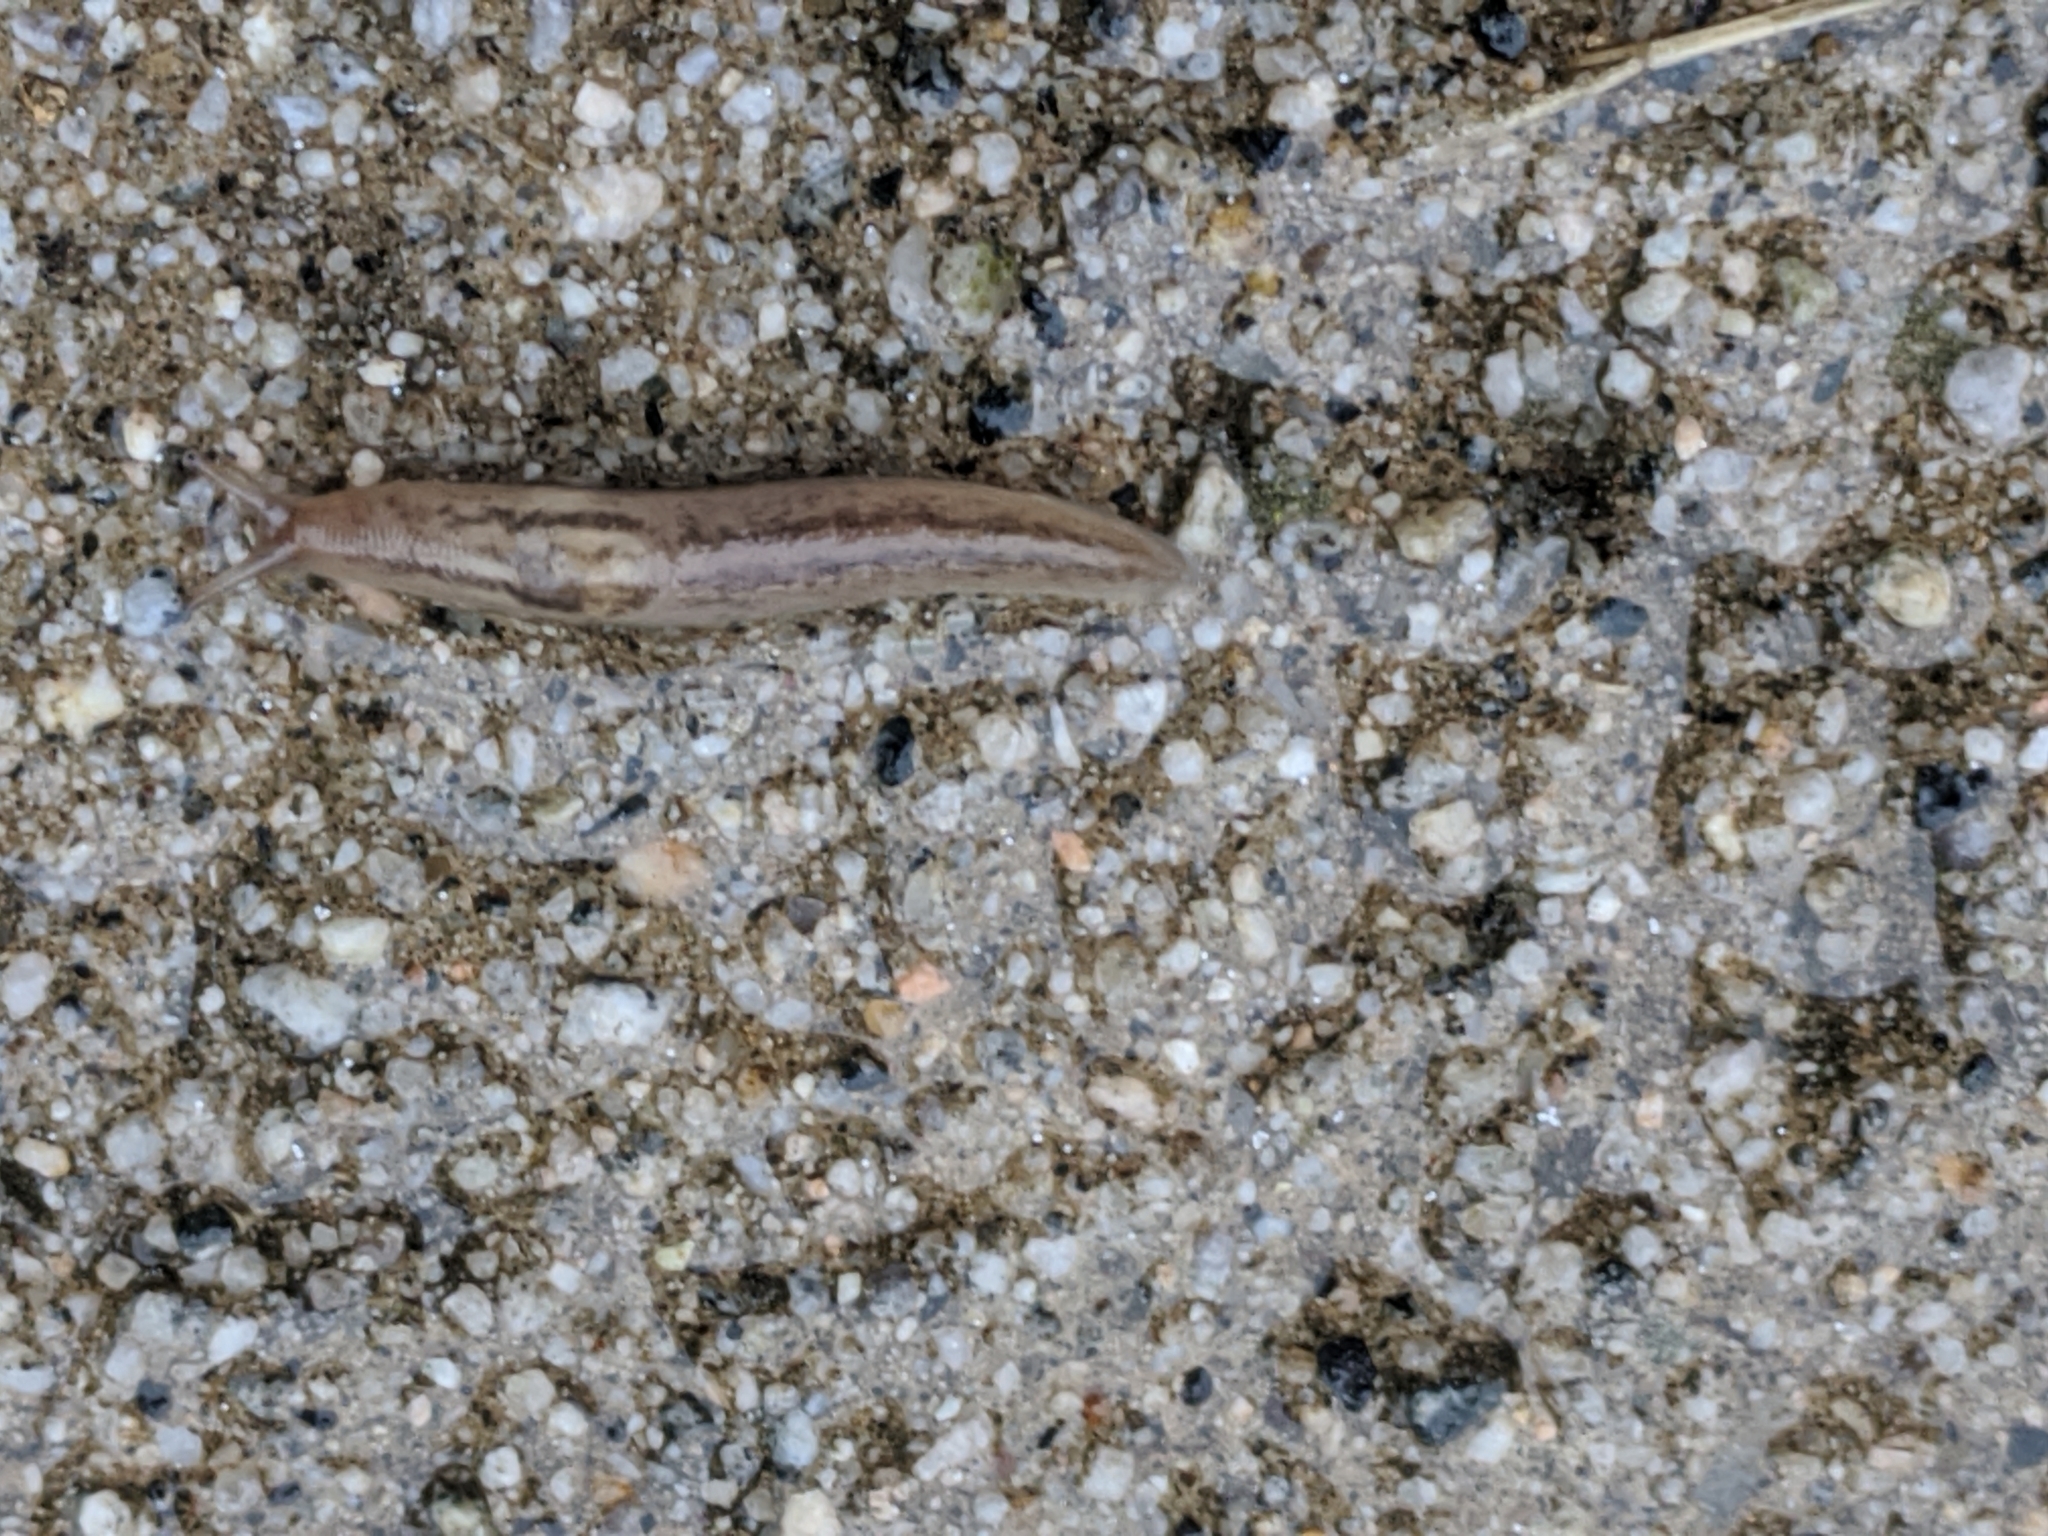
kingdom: Animalia
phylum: Mollusca
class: Gastropoda
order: Stylommatophora
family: Limacidae
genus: Ambigolimax
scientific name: Ambigolimax
